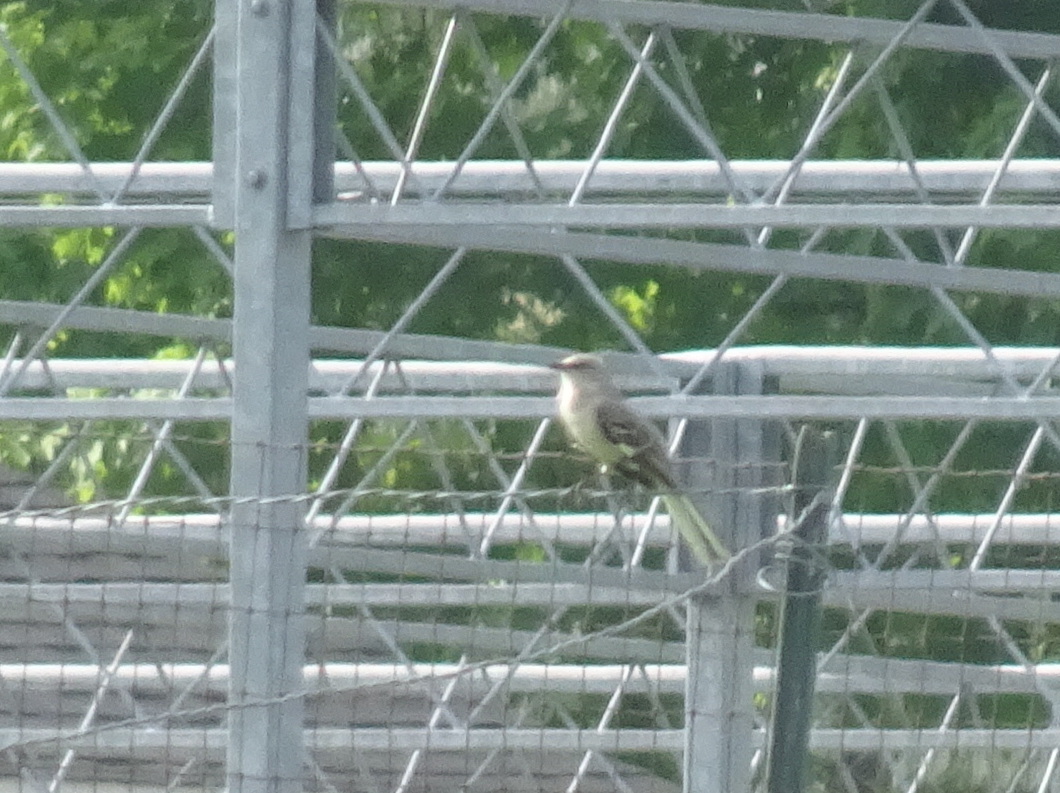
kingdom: Animalia
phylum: Chordata
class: Aves
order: Passeriformes
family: Mimidae
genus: Mimus
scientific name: Mimus polyglottos
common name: Northern mockingbird
